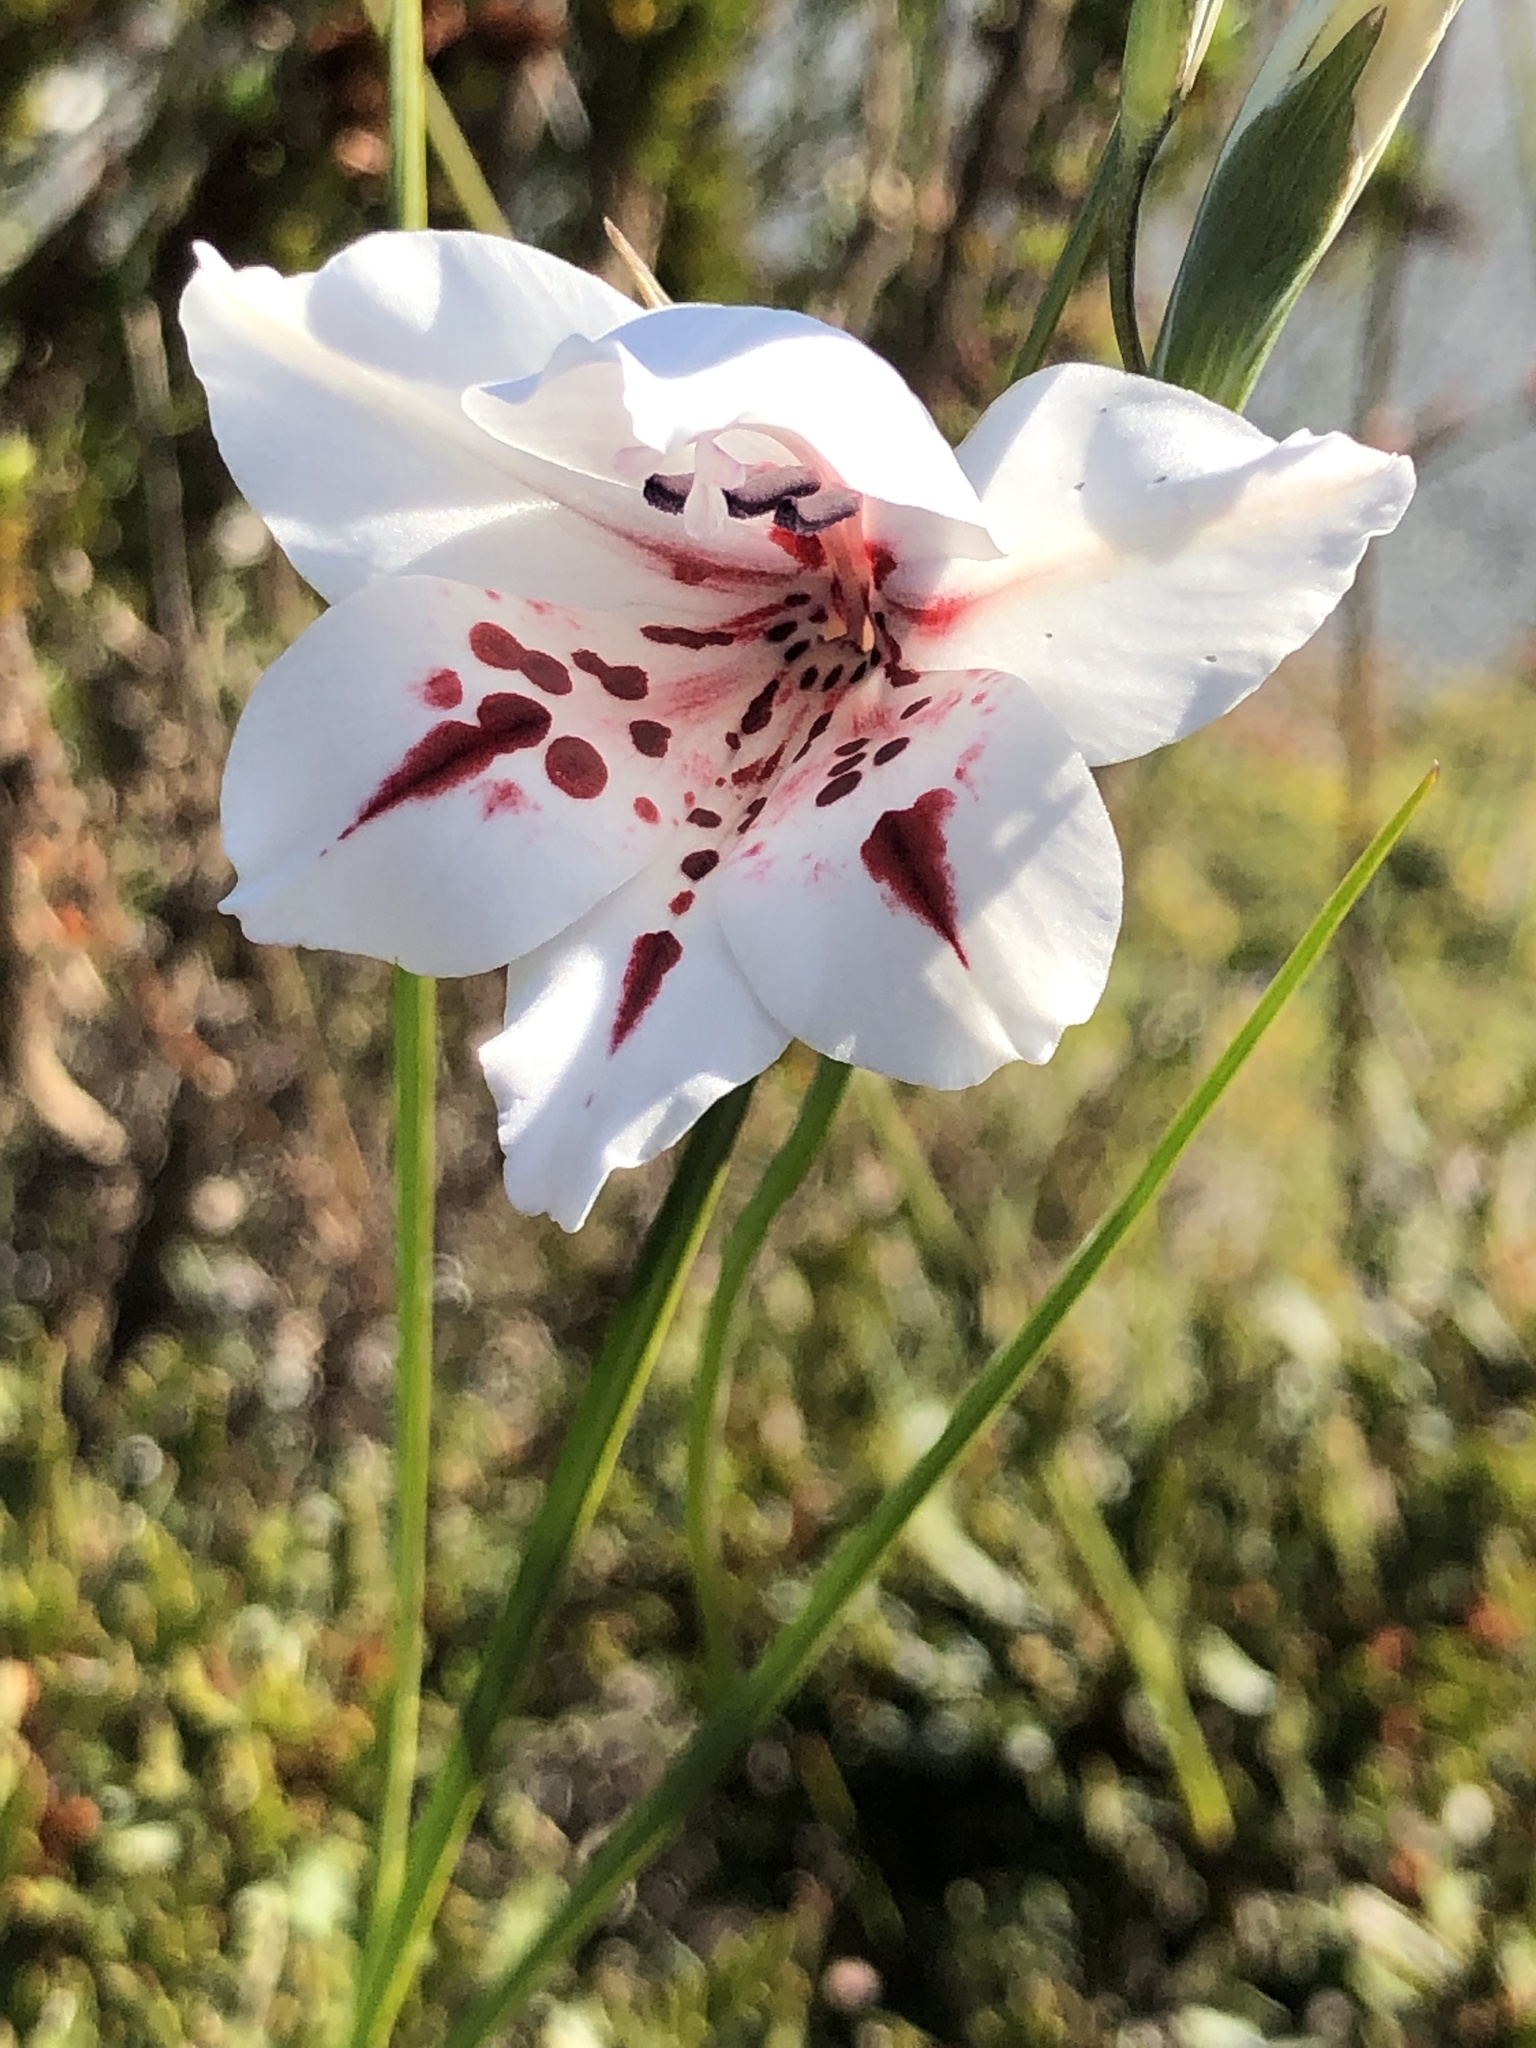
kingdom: Plantae
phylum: Tracheophyta
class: Liliopsida
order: Asparagales
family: Iridaceae
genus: Gladiolus
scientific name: Gladiolus variegatus
